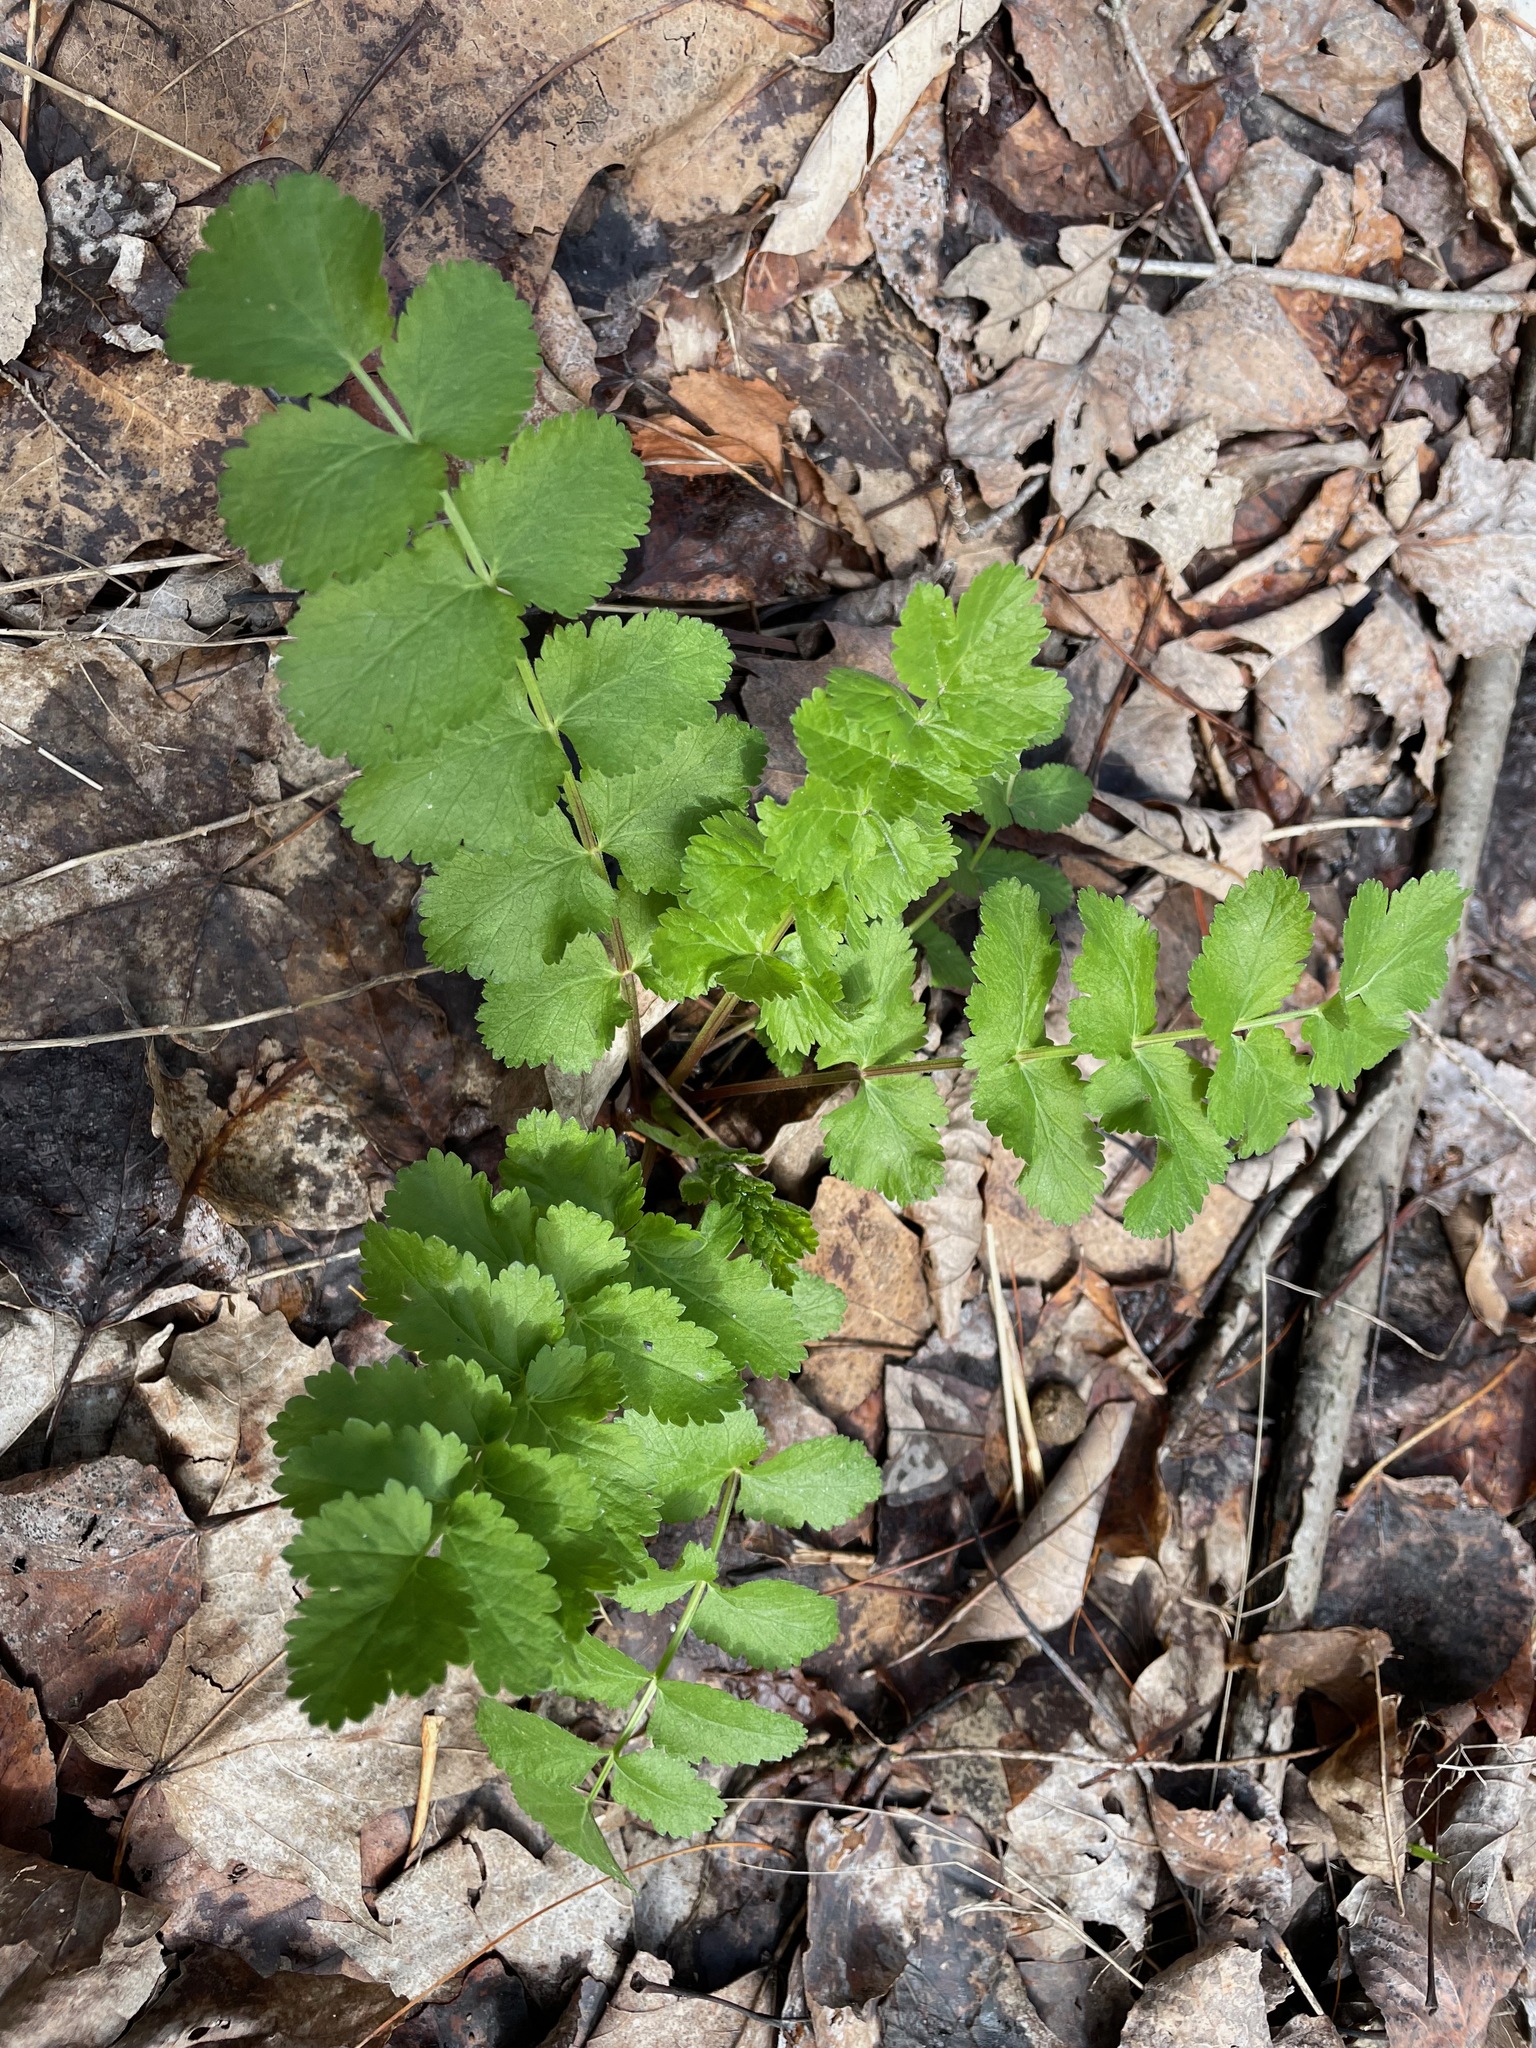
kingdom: Plantae
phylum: Tracheophyta
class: Magnoliopsida
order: Apiales
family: Apiaceae
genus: Pastinaca
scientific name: Pastinaca sativa
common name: Wild parsnip
